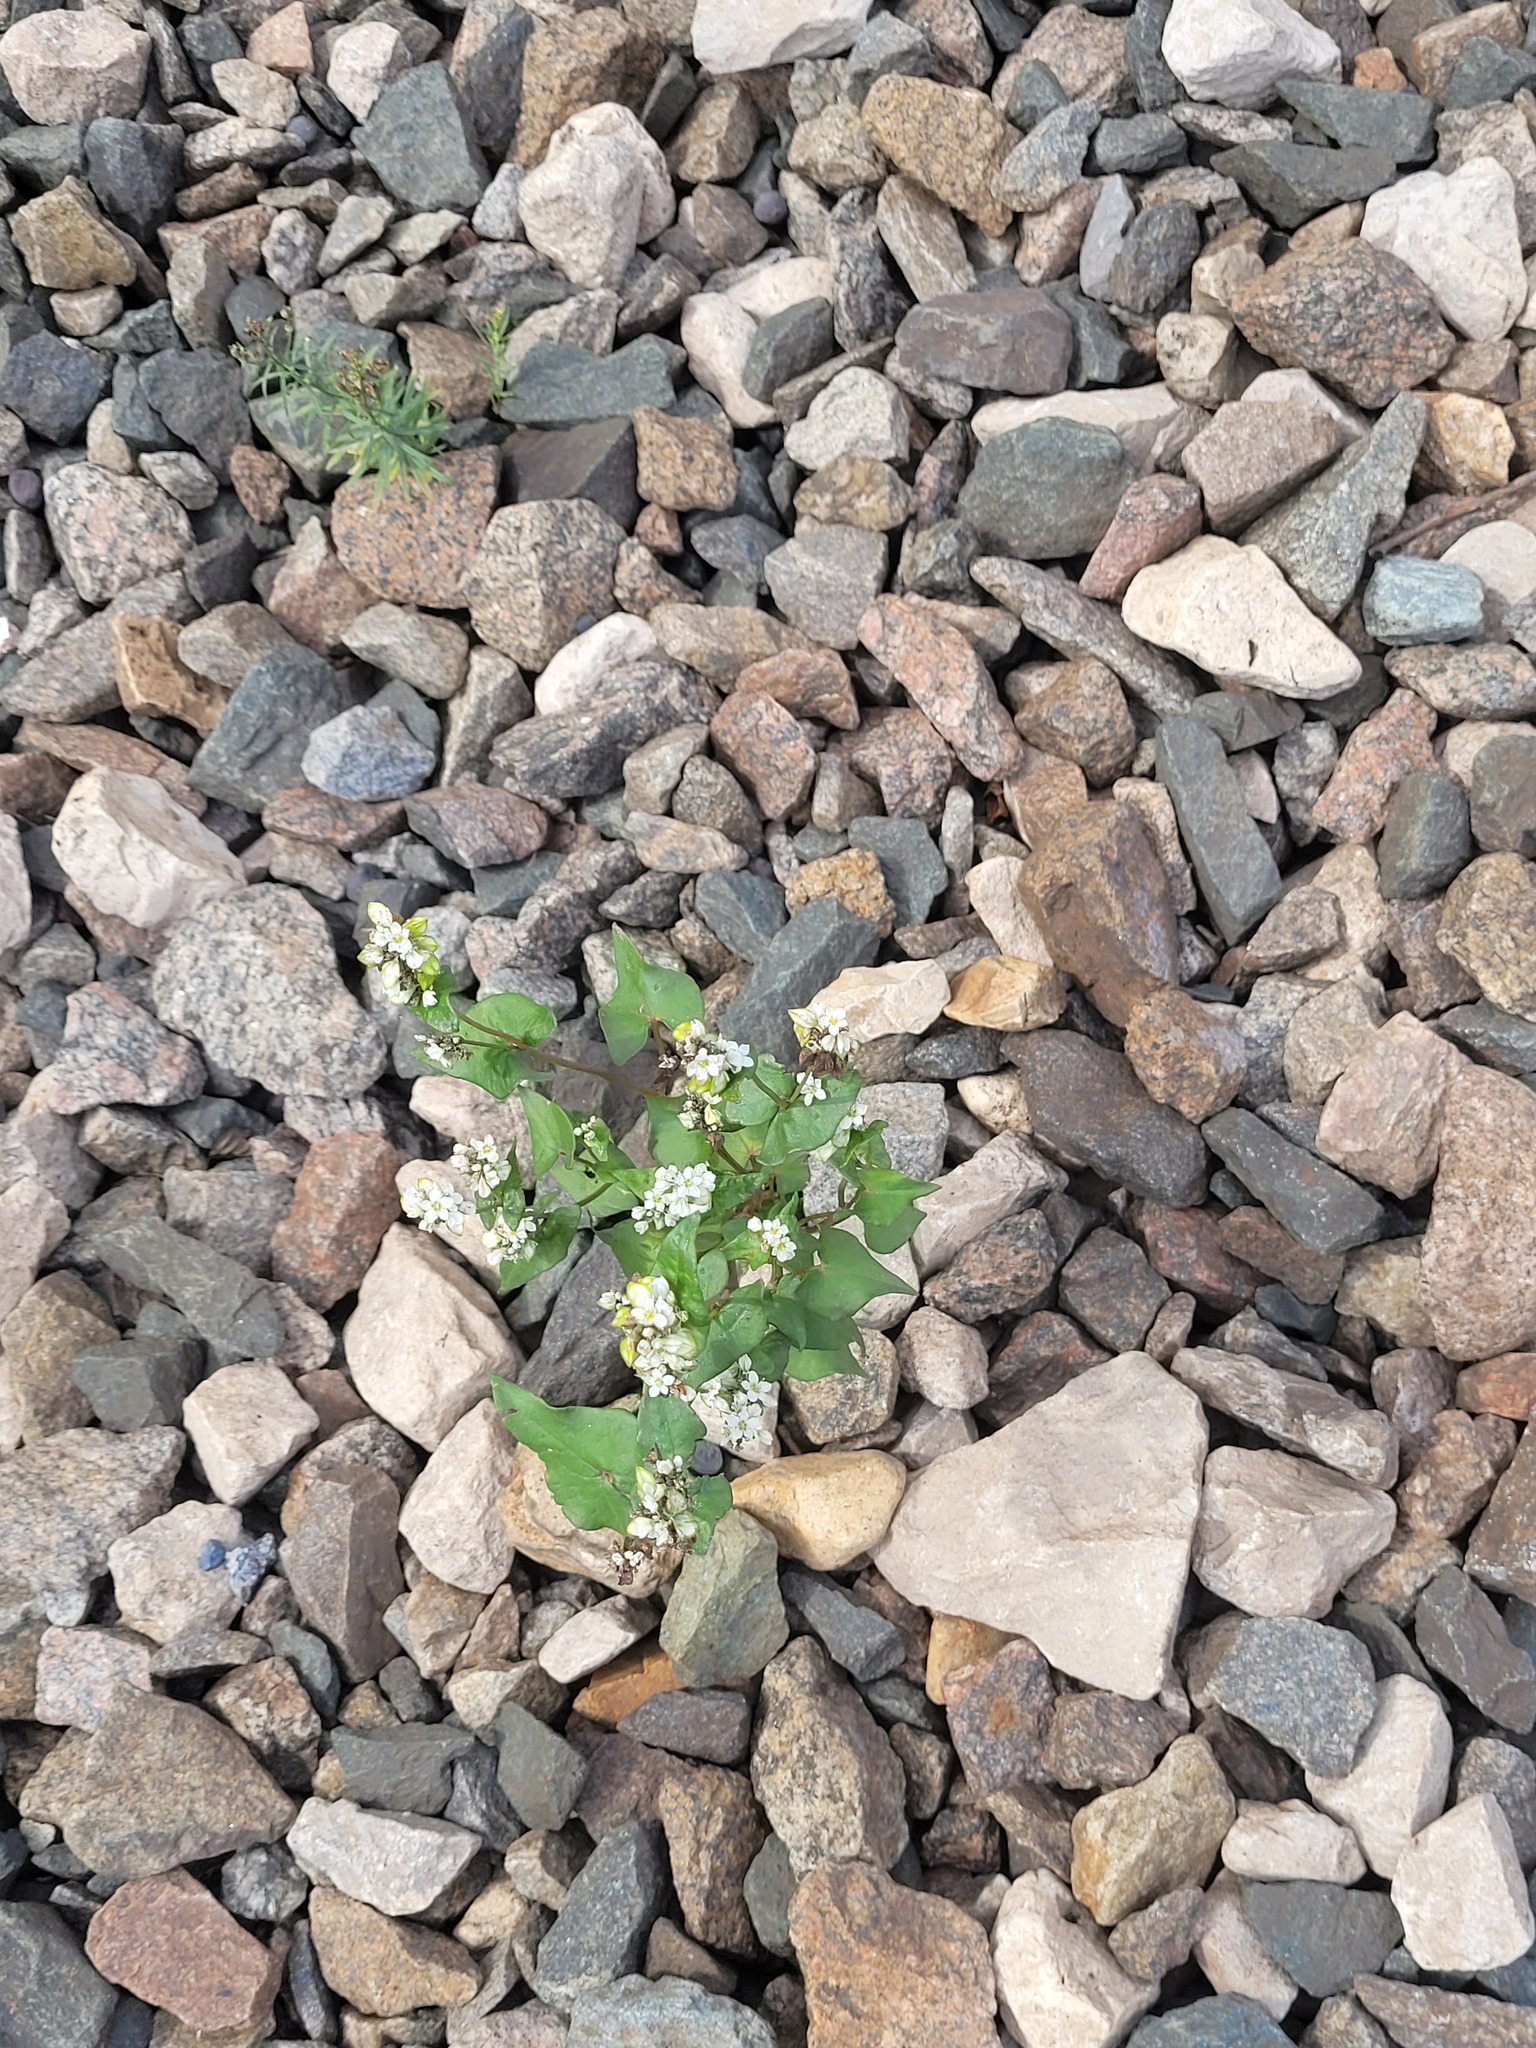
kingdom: Plantae
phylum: Tracheophyta
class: Magnoliopsida
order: Caryophyllales
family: Polygonaceae
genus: Fagopyrum
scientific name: Fagopyrum esculentum
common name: Buckwheat
